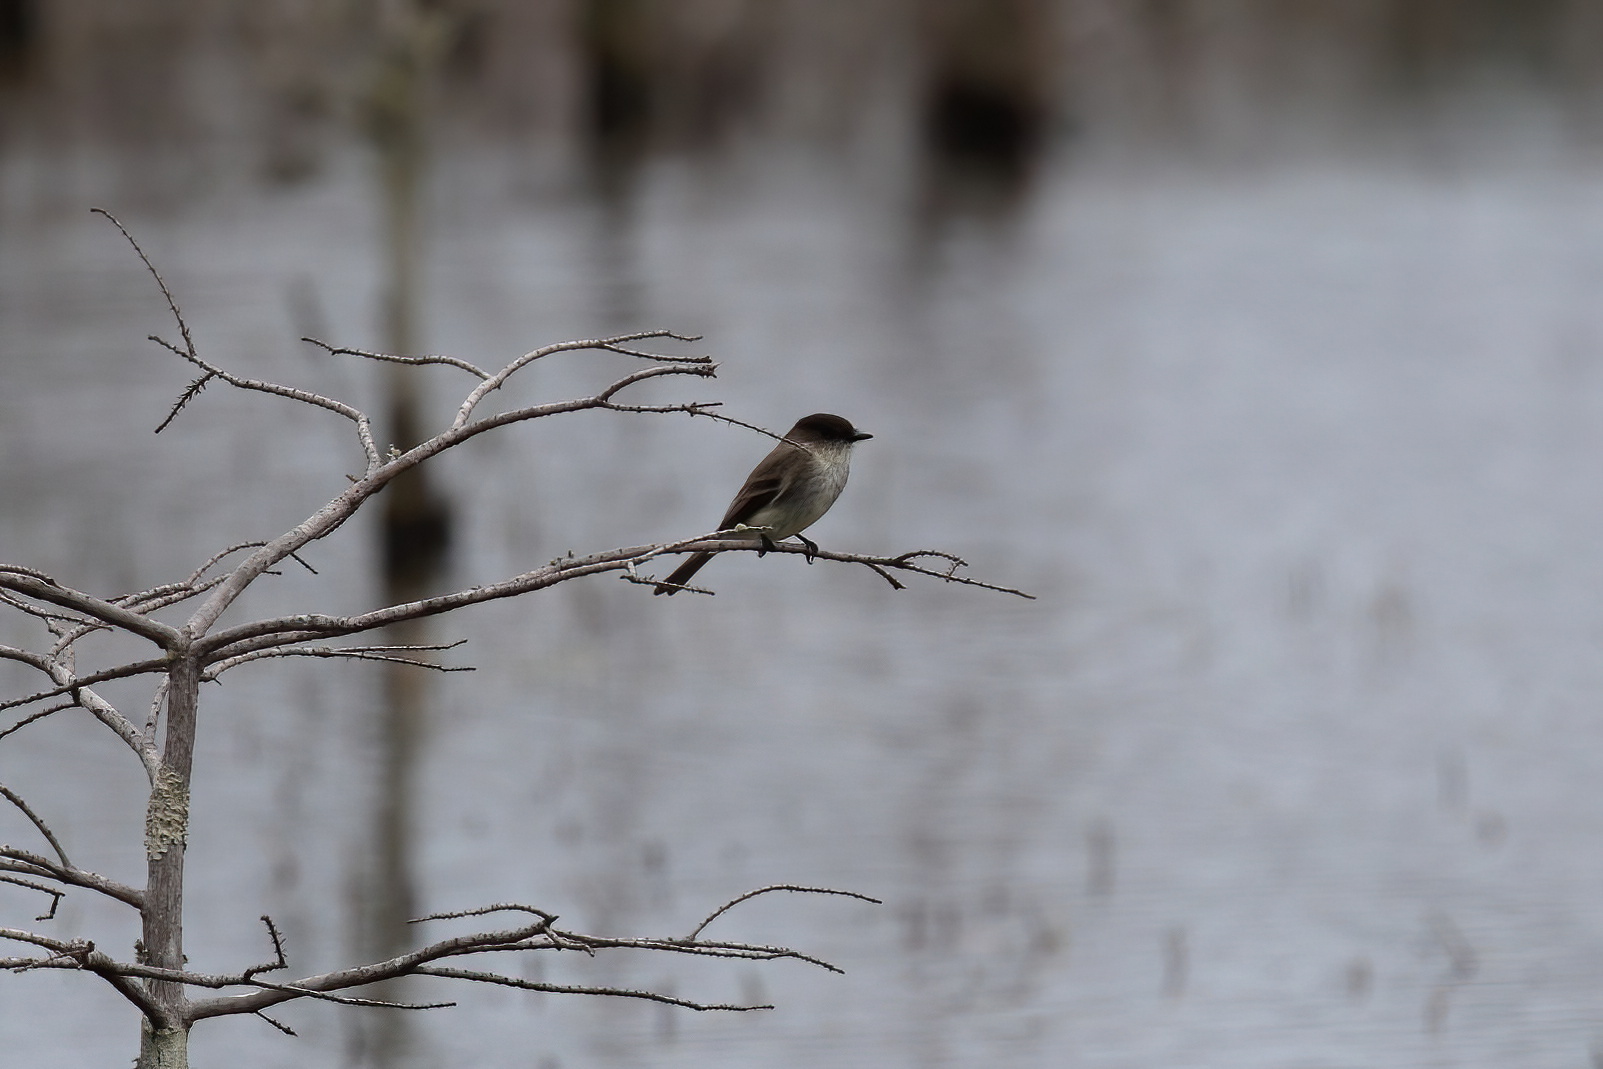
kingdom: Animalia
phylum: Chordata
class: Aves
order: Passeriformes
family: Tyrannidae
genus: Sayornis
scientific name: Sayornis phoebe
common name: Eastern phoebe
